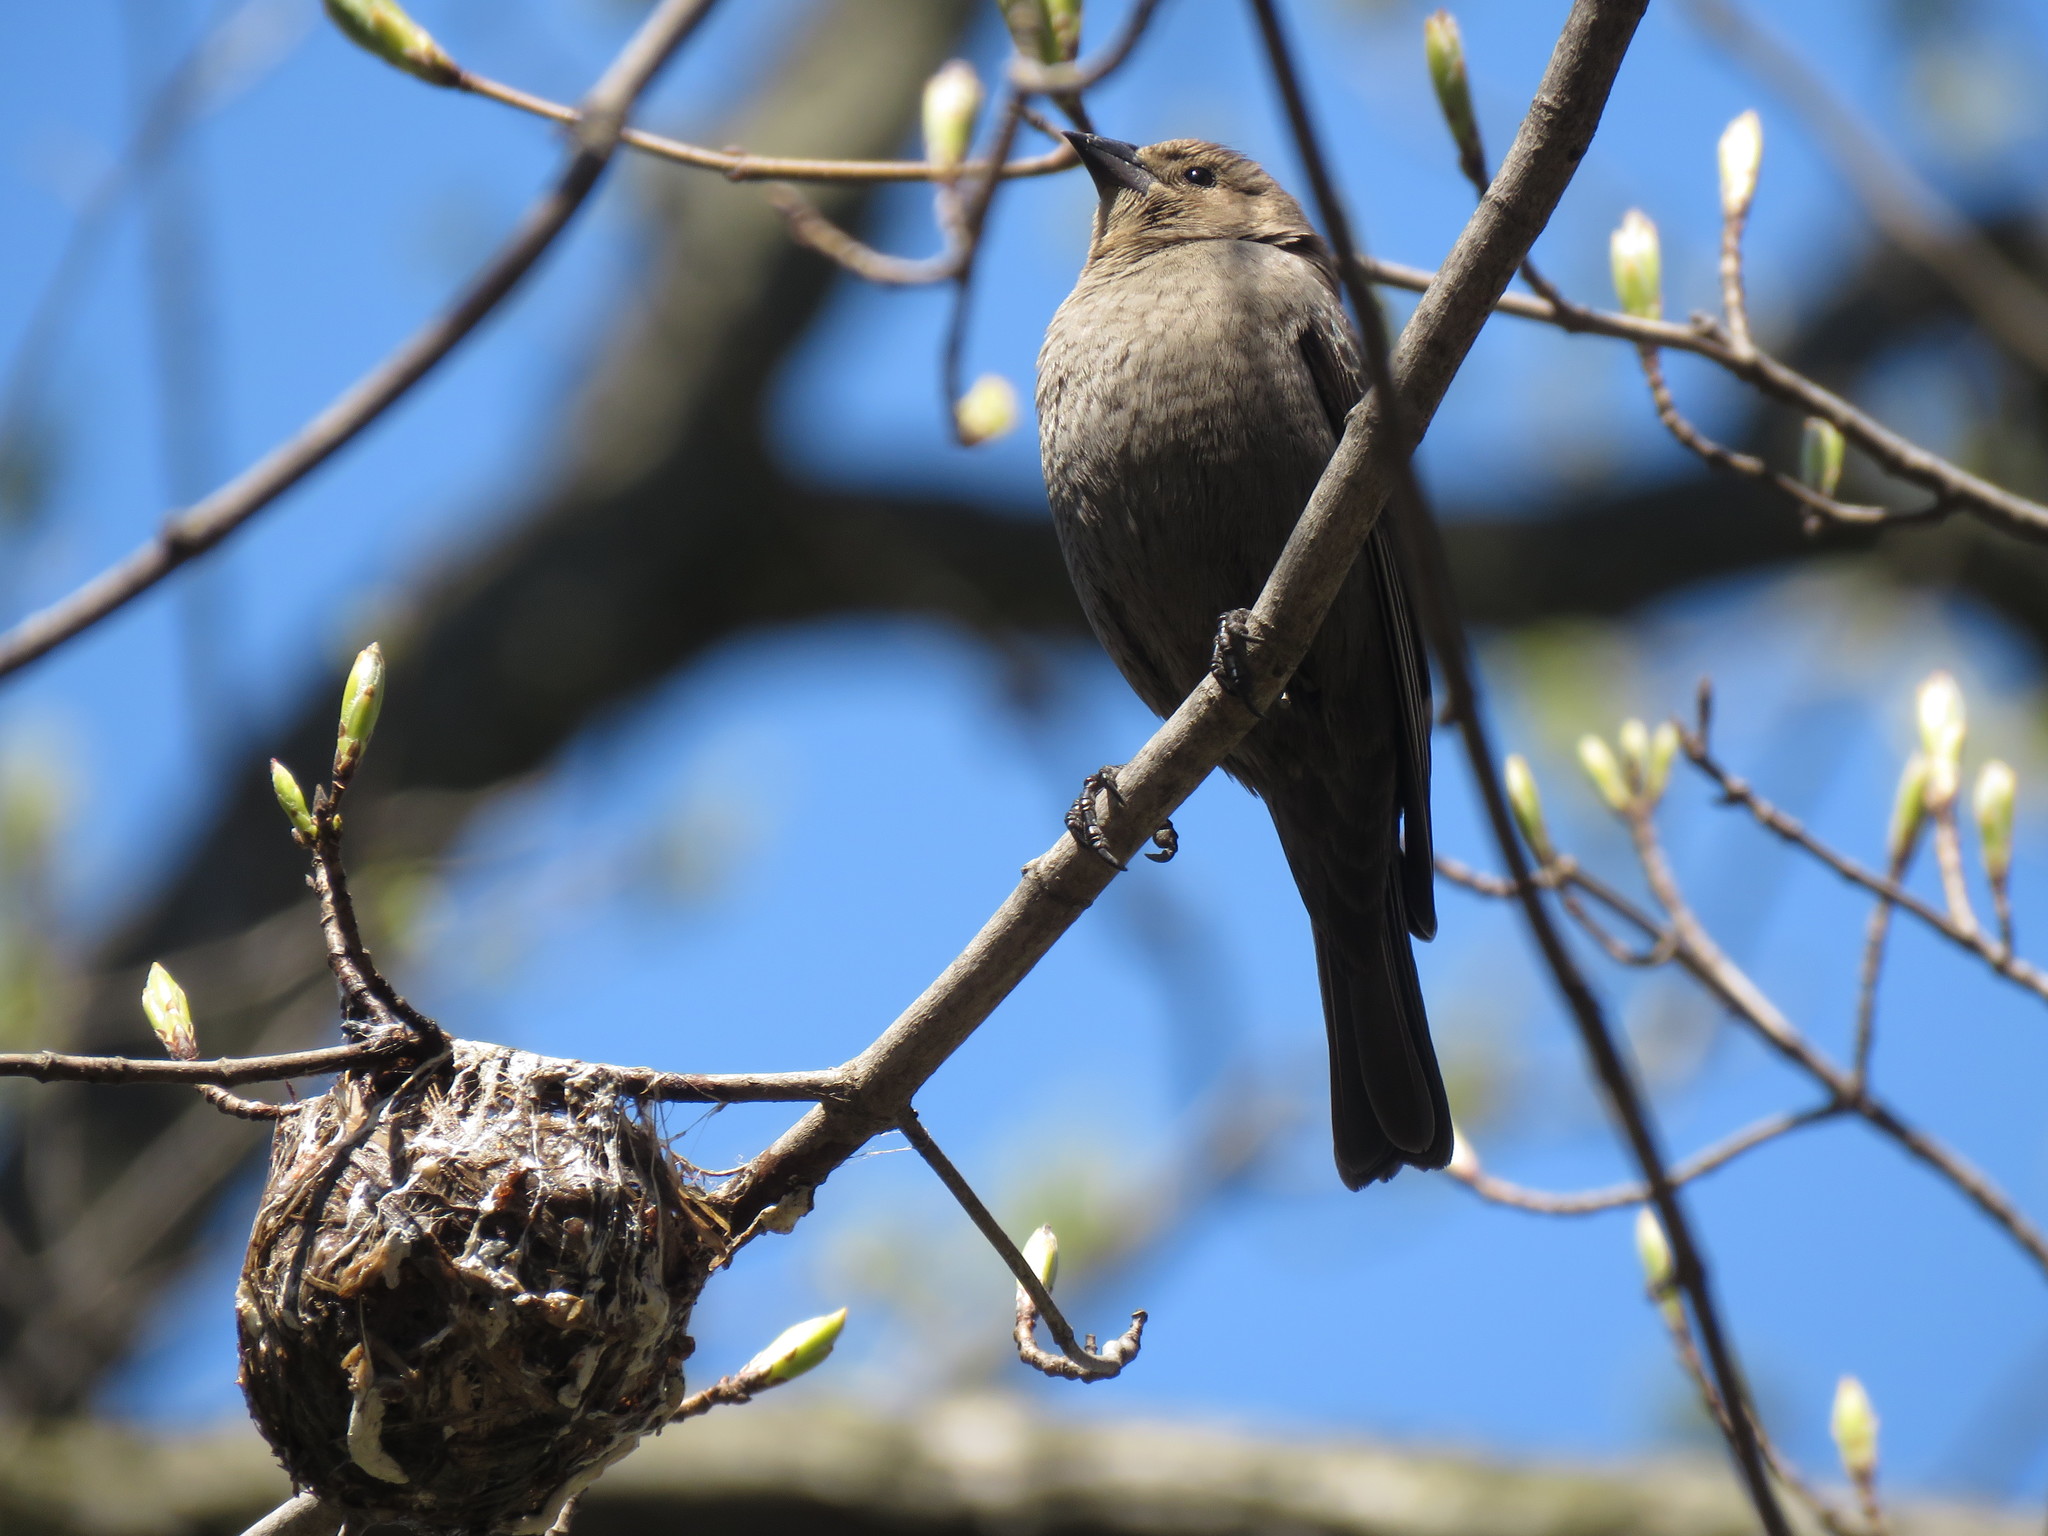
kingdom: Animalia
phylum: Chordata
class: Aves
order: Passeriformes
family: Icteridae
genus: Molothrus
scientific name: Molothrus ater
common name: Brown-headed cowbird
